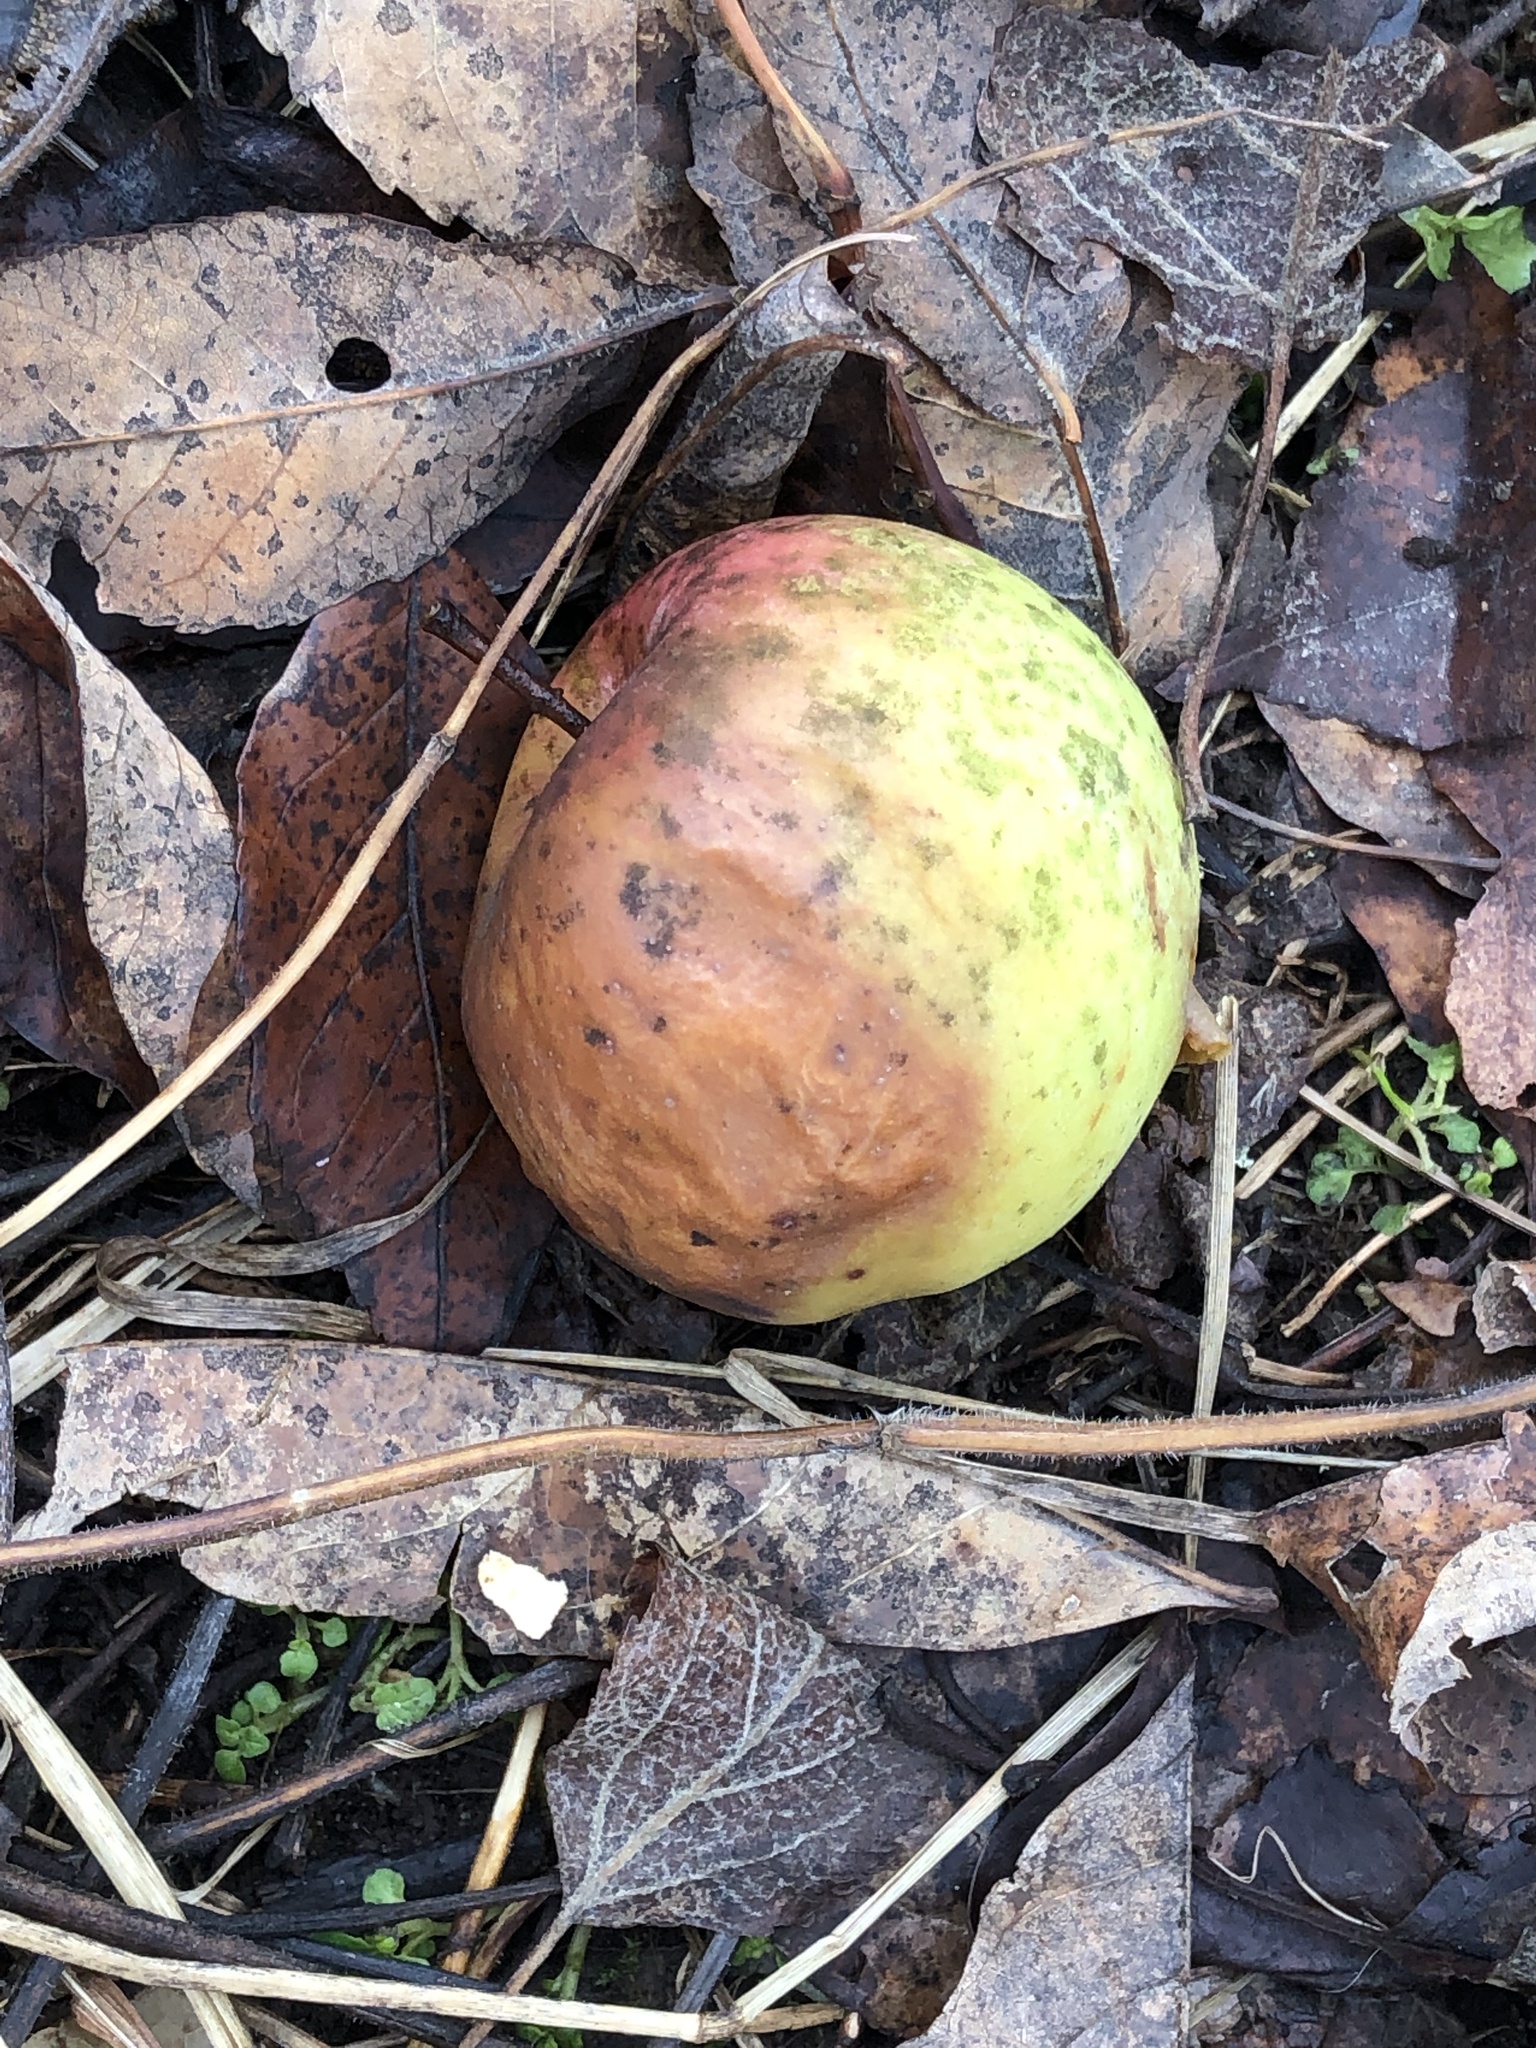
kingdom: Plantae
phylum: Tracheophyta
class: Magnoliopsida
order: Rosales
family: Rosaceae
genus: Malus
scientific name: Malus domestica
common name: Apple
